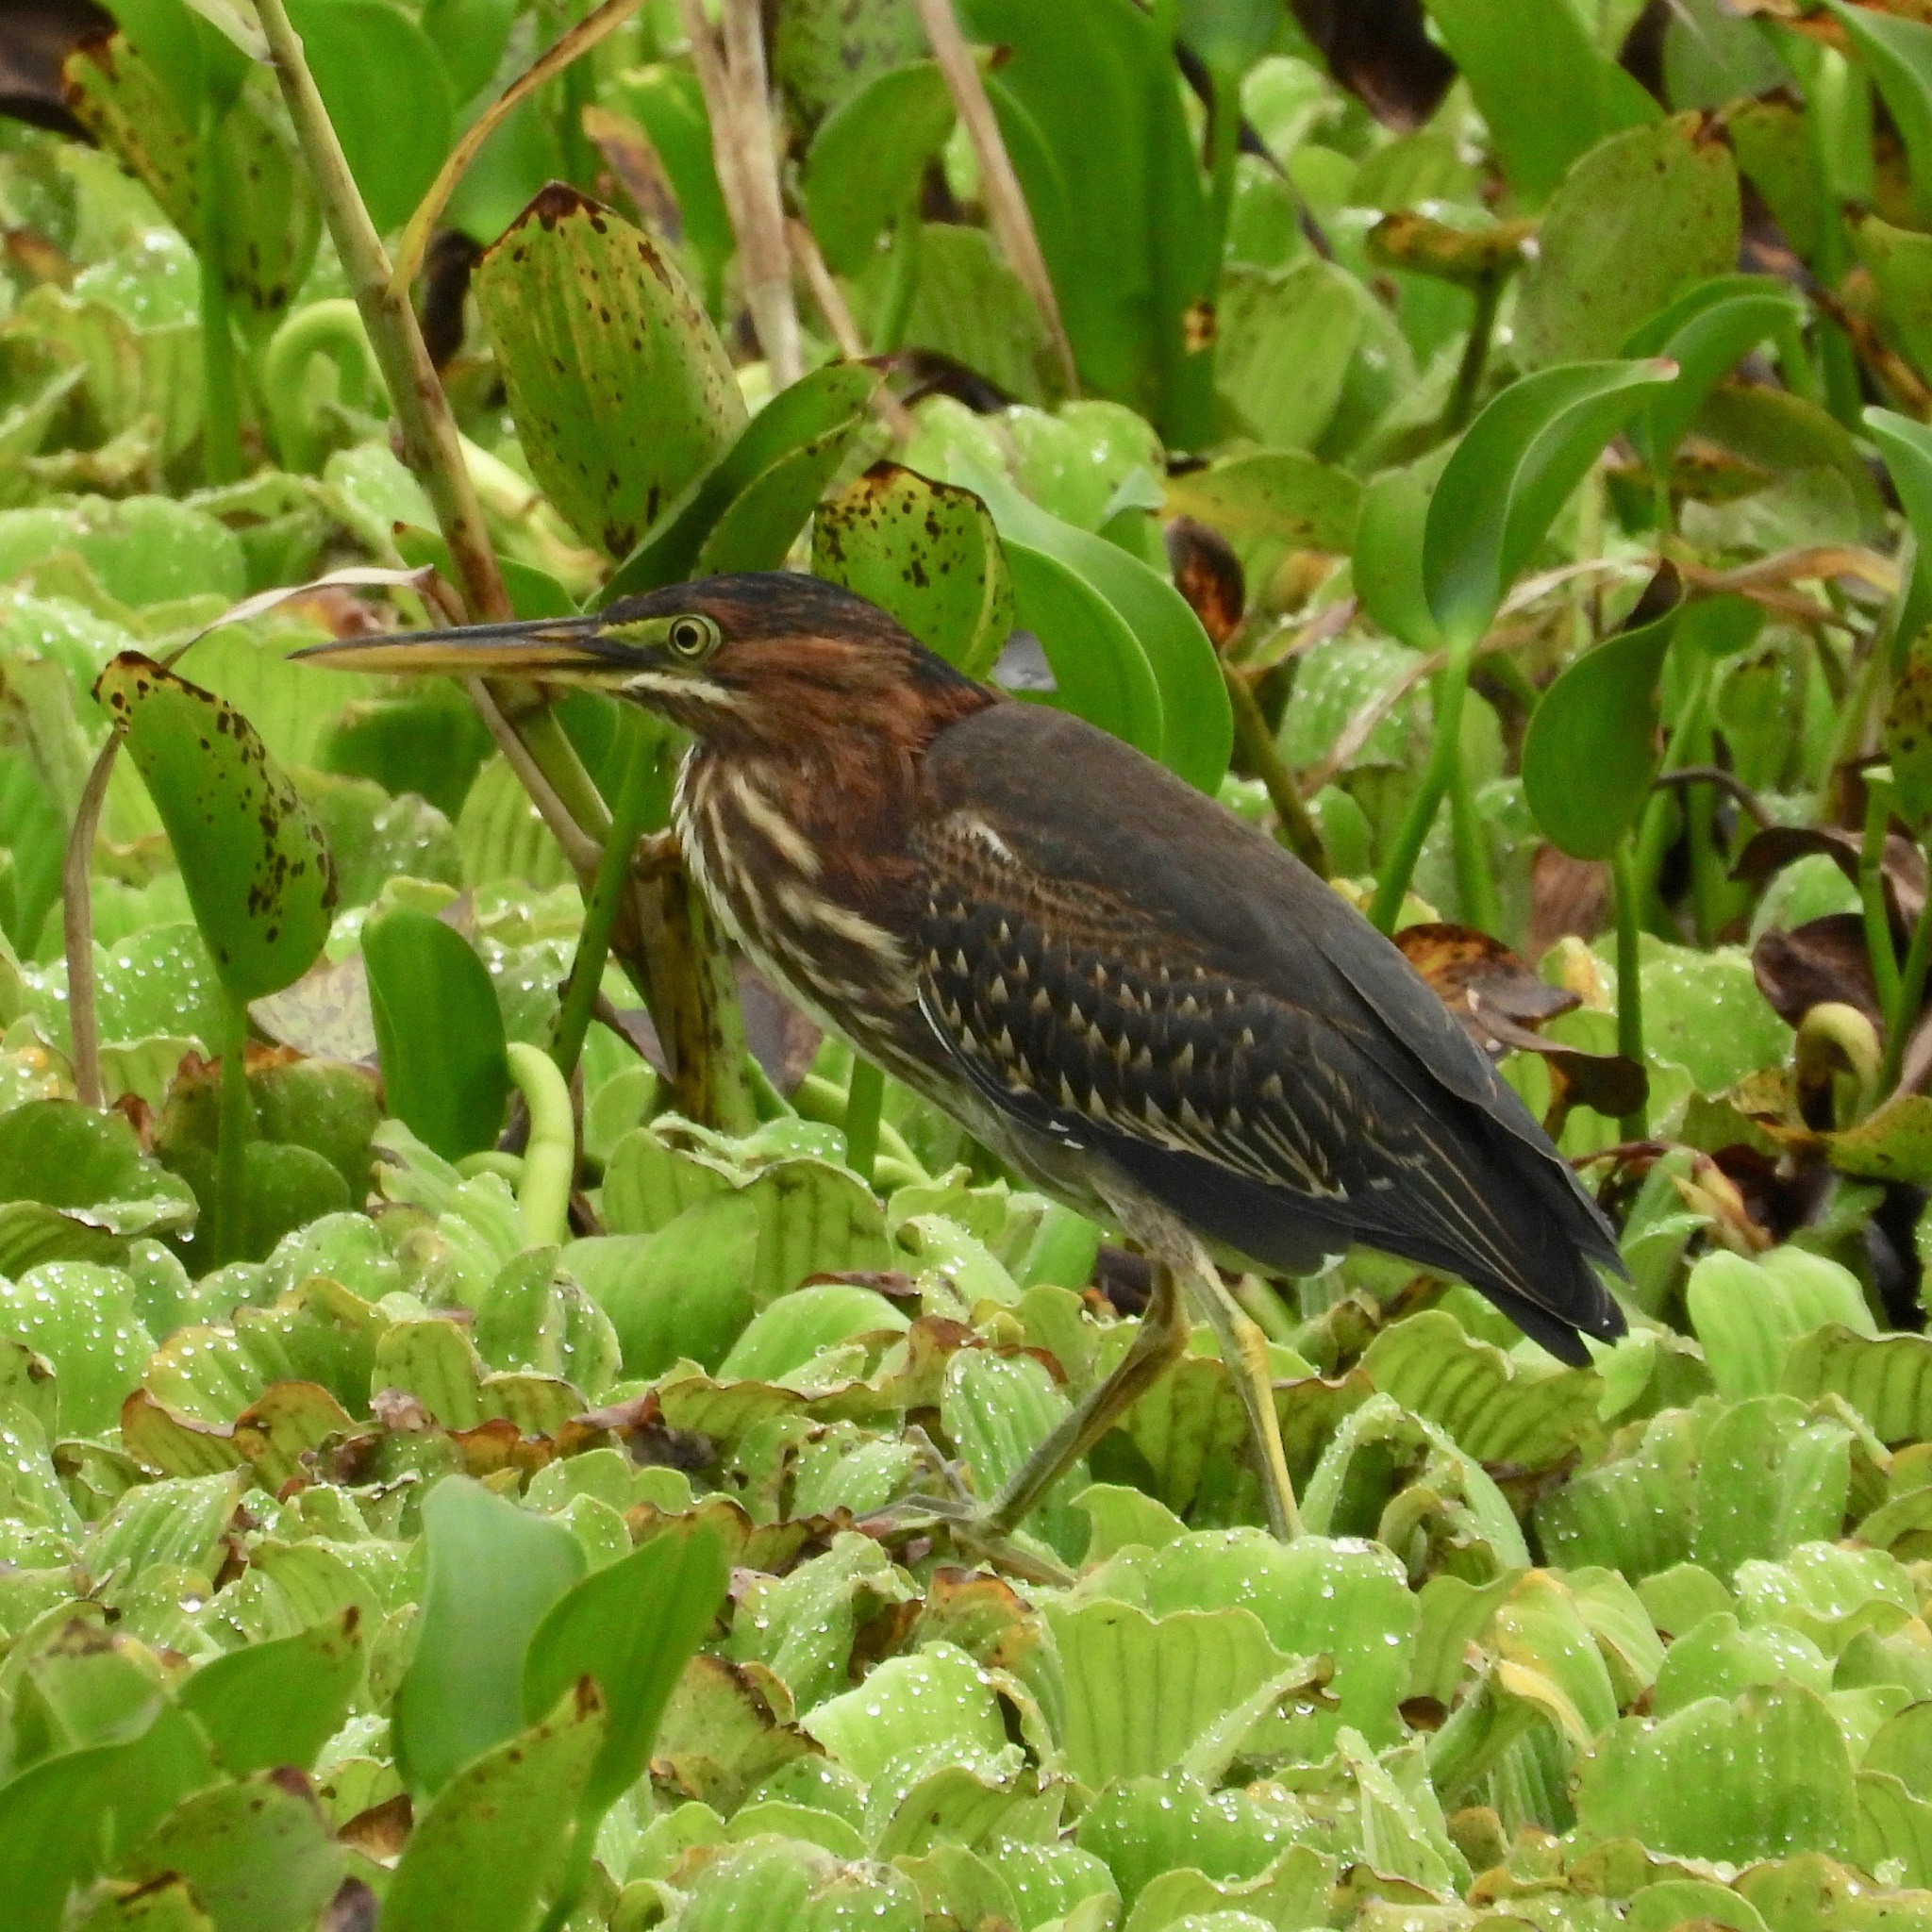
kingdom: Animalia
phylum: Chordata
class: Aves
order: Pelecaniformes
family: Ardeidae
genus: Butorides
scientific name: Butorides virescens
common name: Green heron
